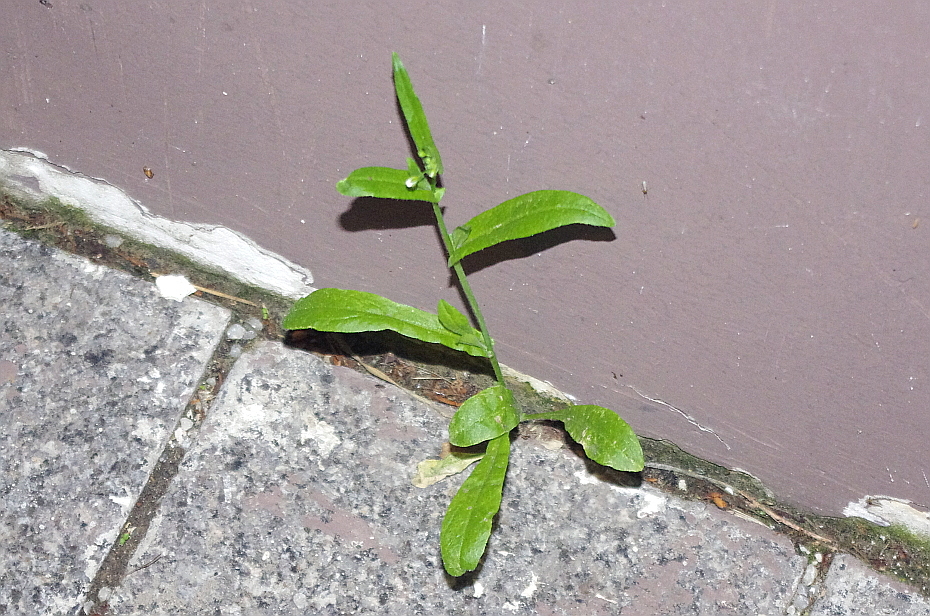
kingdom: Plantae
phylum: Tracheophyta
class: Magnoliopsida
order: Brassicales
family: Brassicaceae
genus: Capsella
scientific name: Capsella bursa-pastoris
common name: Shepherd's purse
